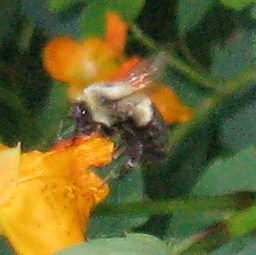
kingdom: Animalia
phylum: Arthropoda
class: Insecta
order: Hymenoptera
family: Apidae
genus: Bombus
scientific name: Bombus impatiens
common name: Common eastern bumble bee
